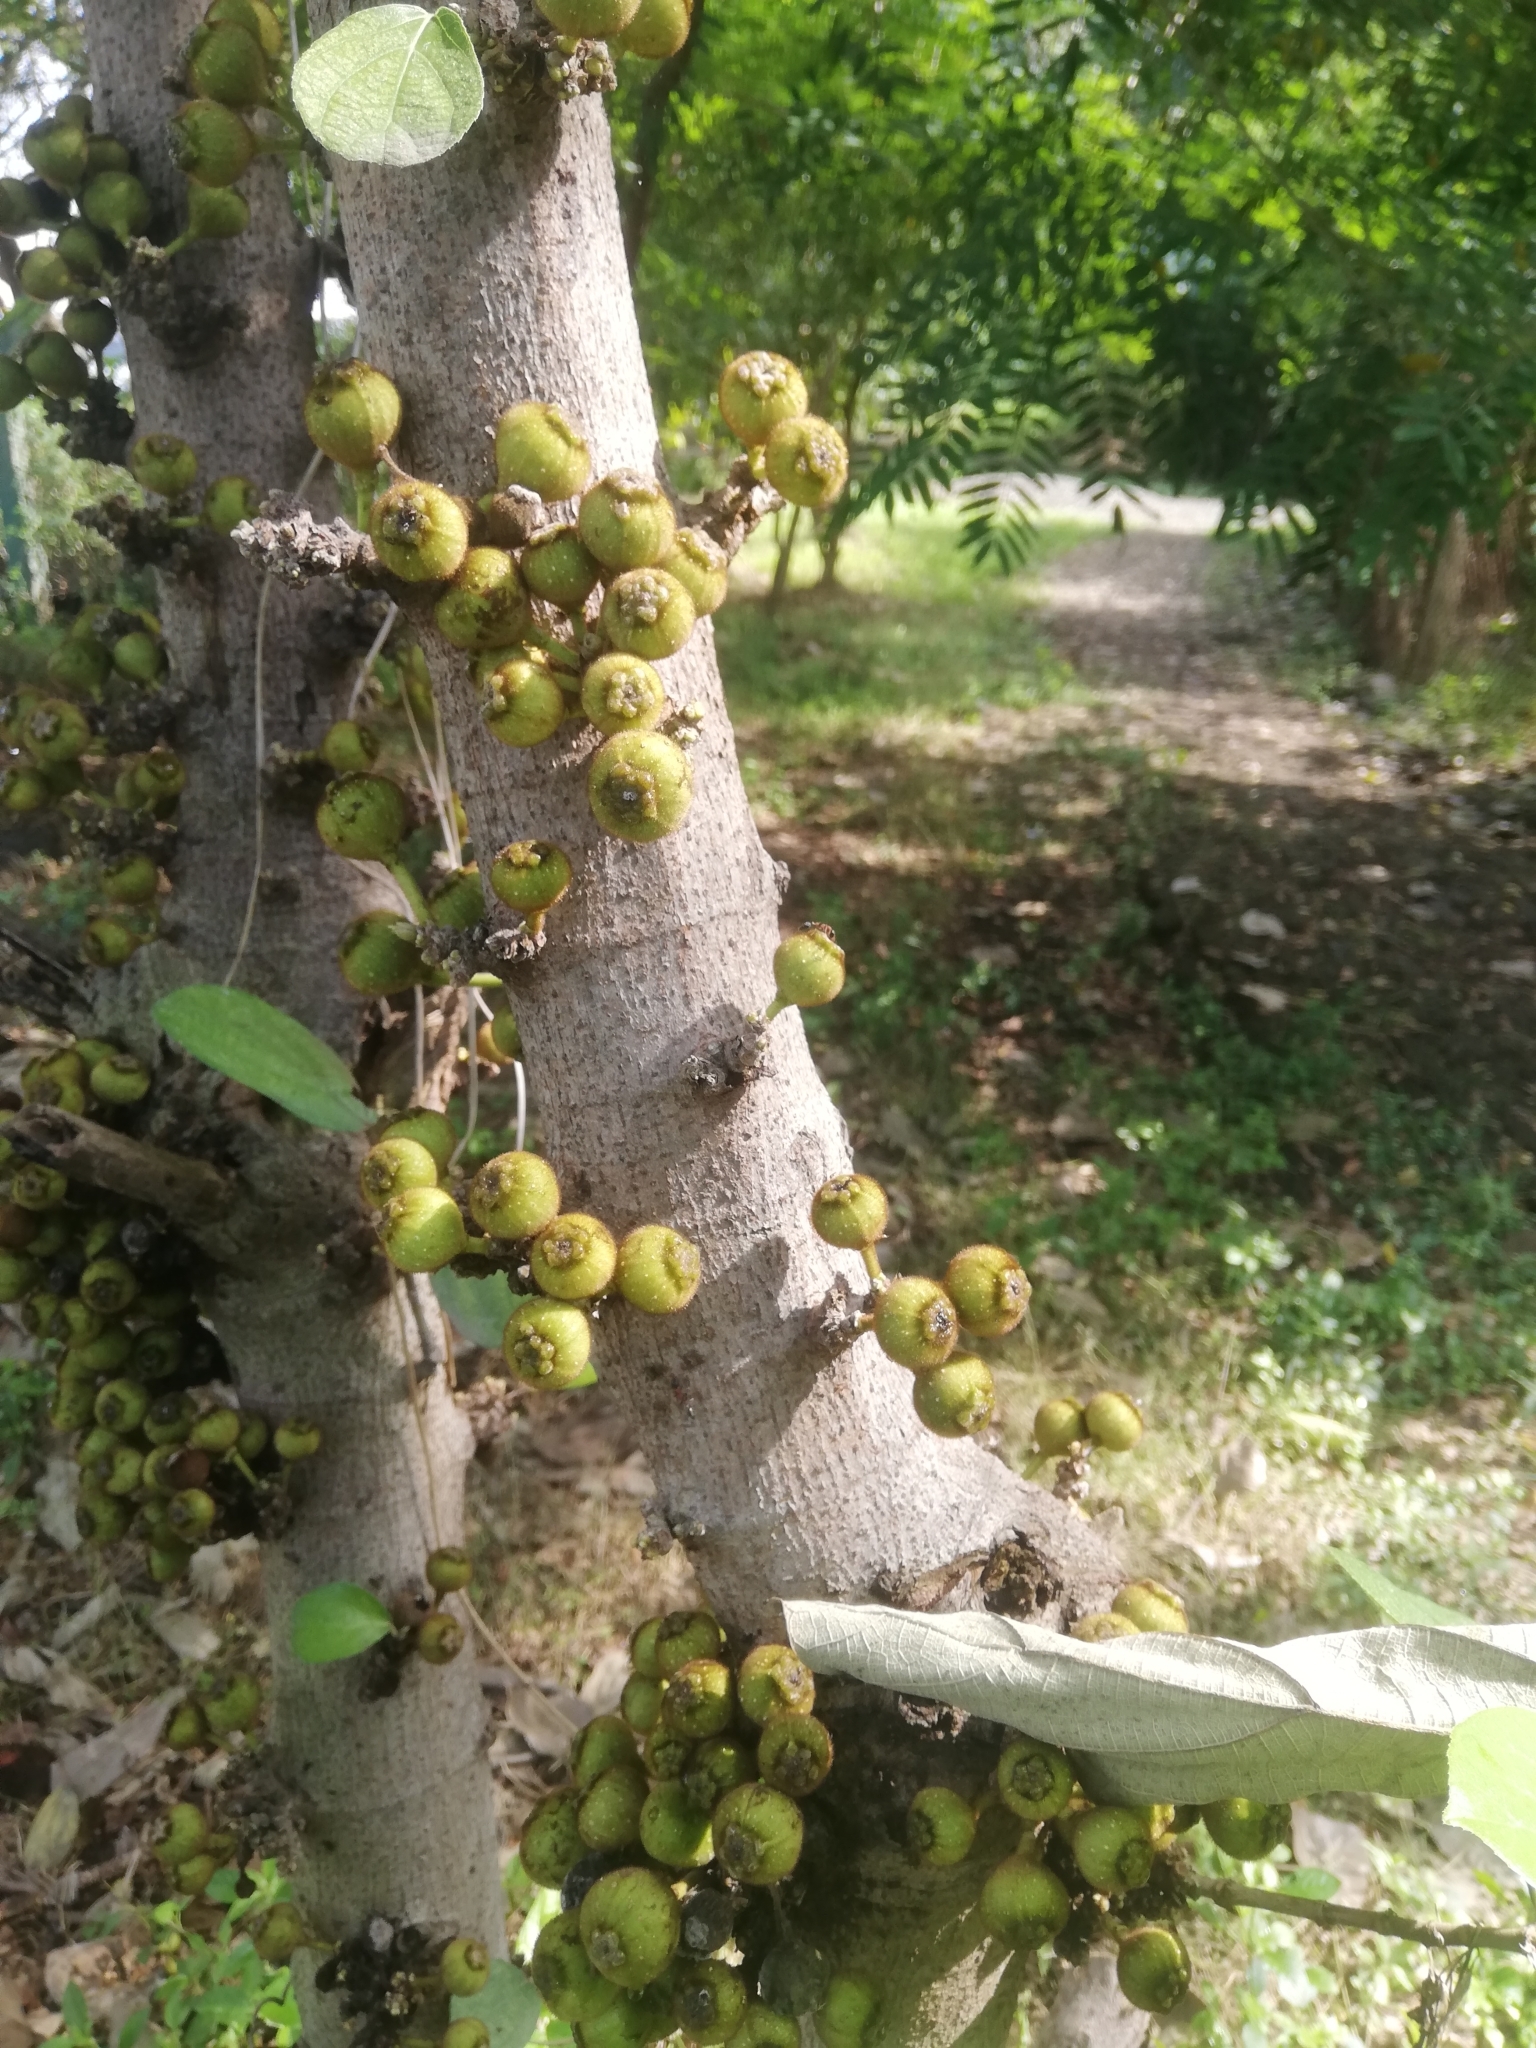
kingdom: Plantae
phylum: Tracheophyta
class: Magnoliopsida
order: Rosales
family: Moraceae
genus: Ficus
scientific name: Ficus hispida
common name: Hairy fig
